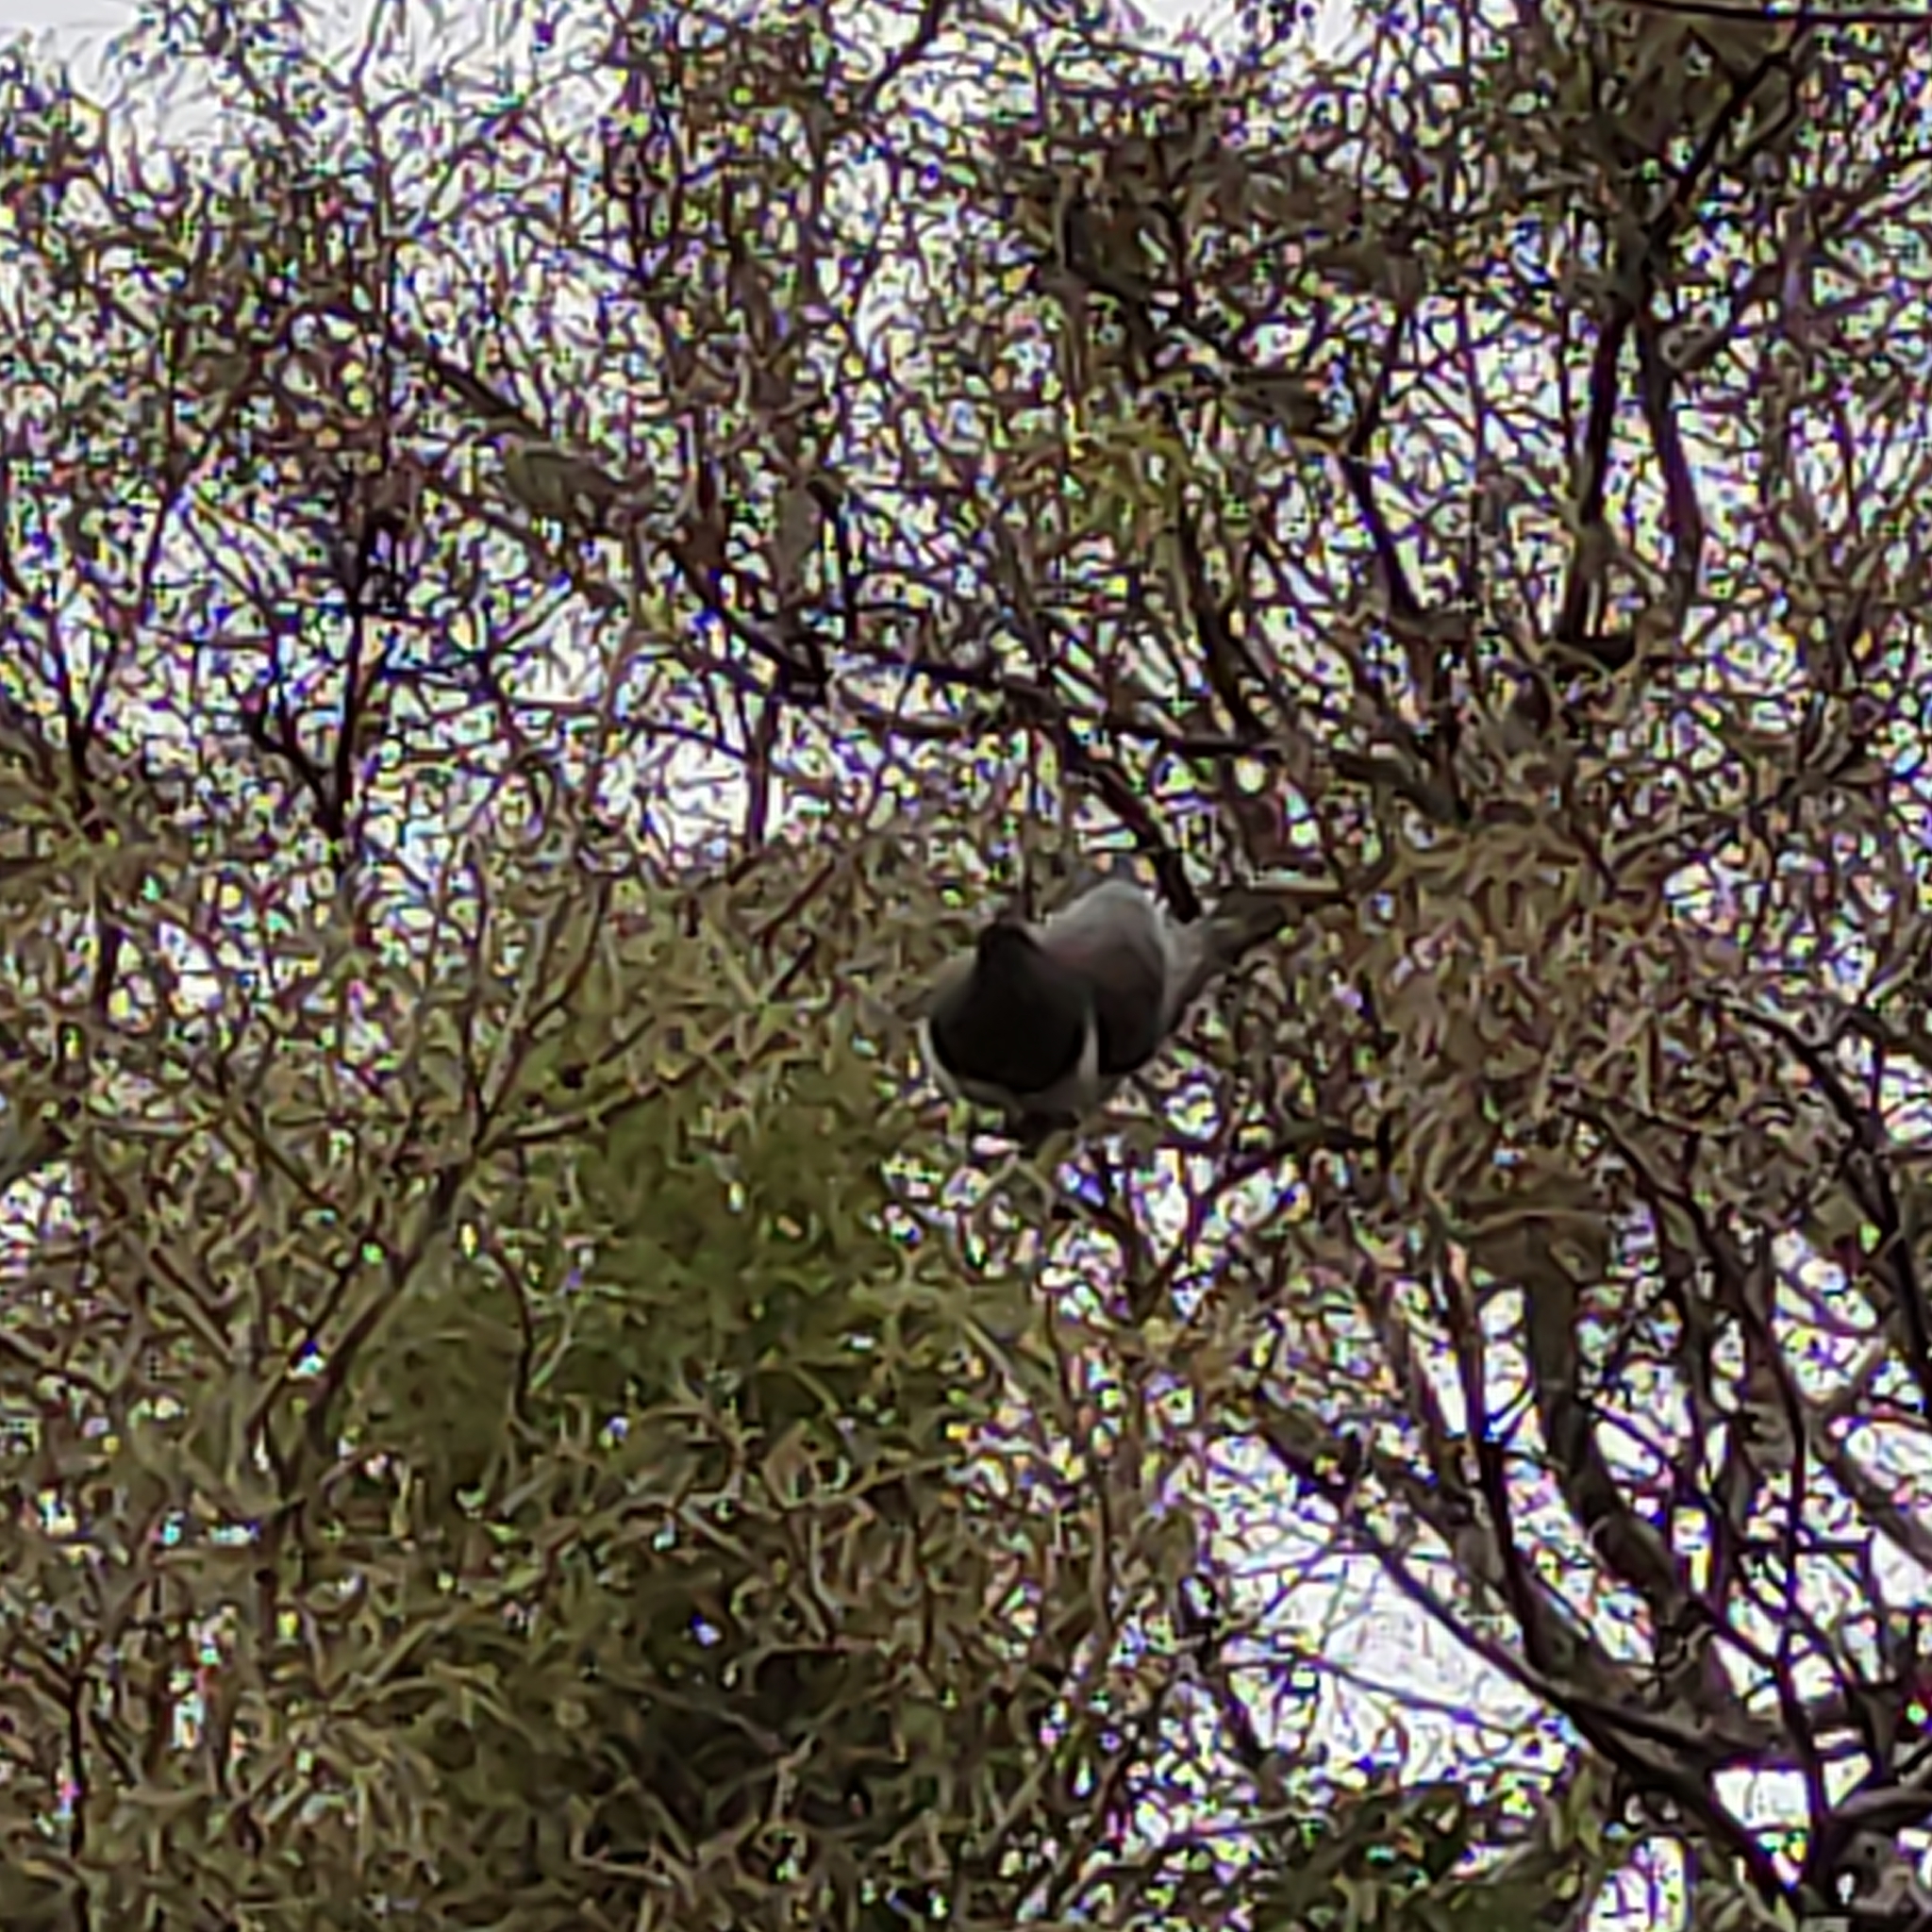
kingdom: Animalia
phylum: Chordata
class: Aves
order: Columbiformes
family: Columbidae
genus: Hemiphaga
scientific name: Hemiphaga novaeseelandiae
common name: New zealand pigeon
